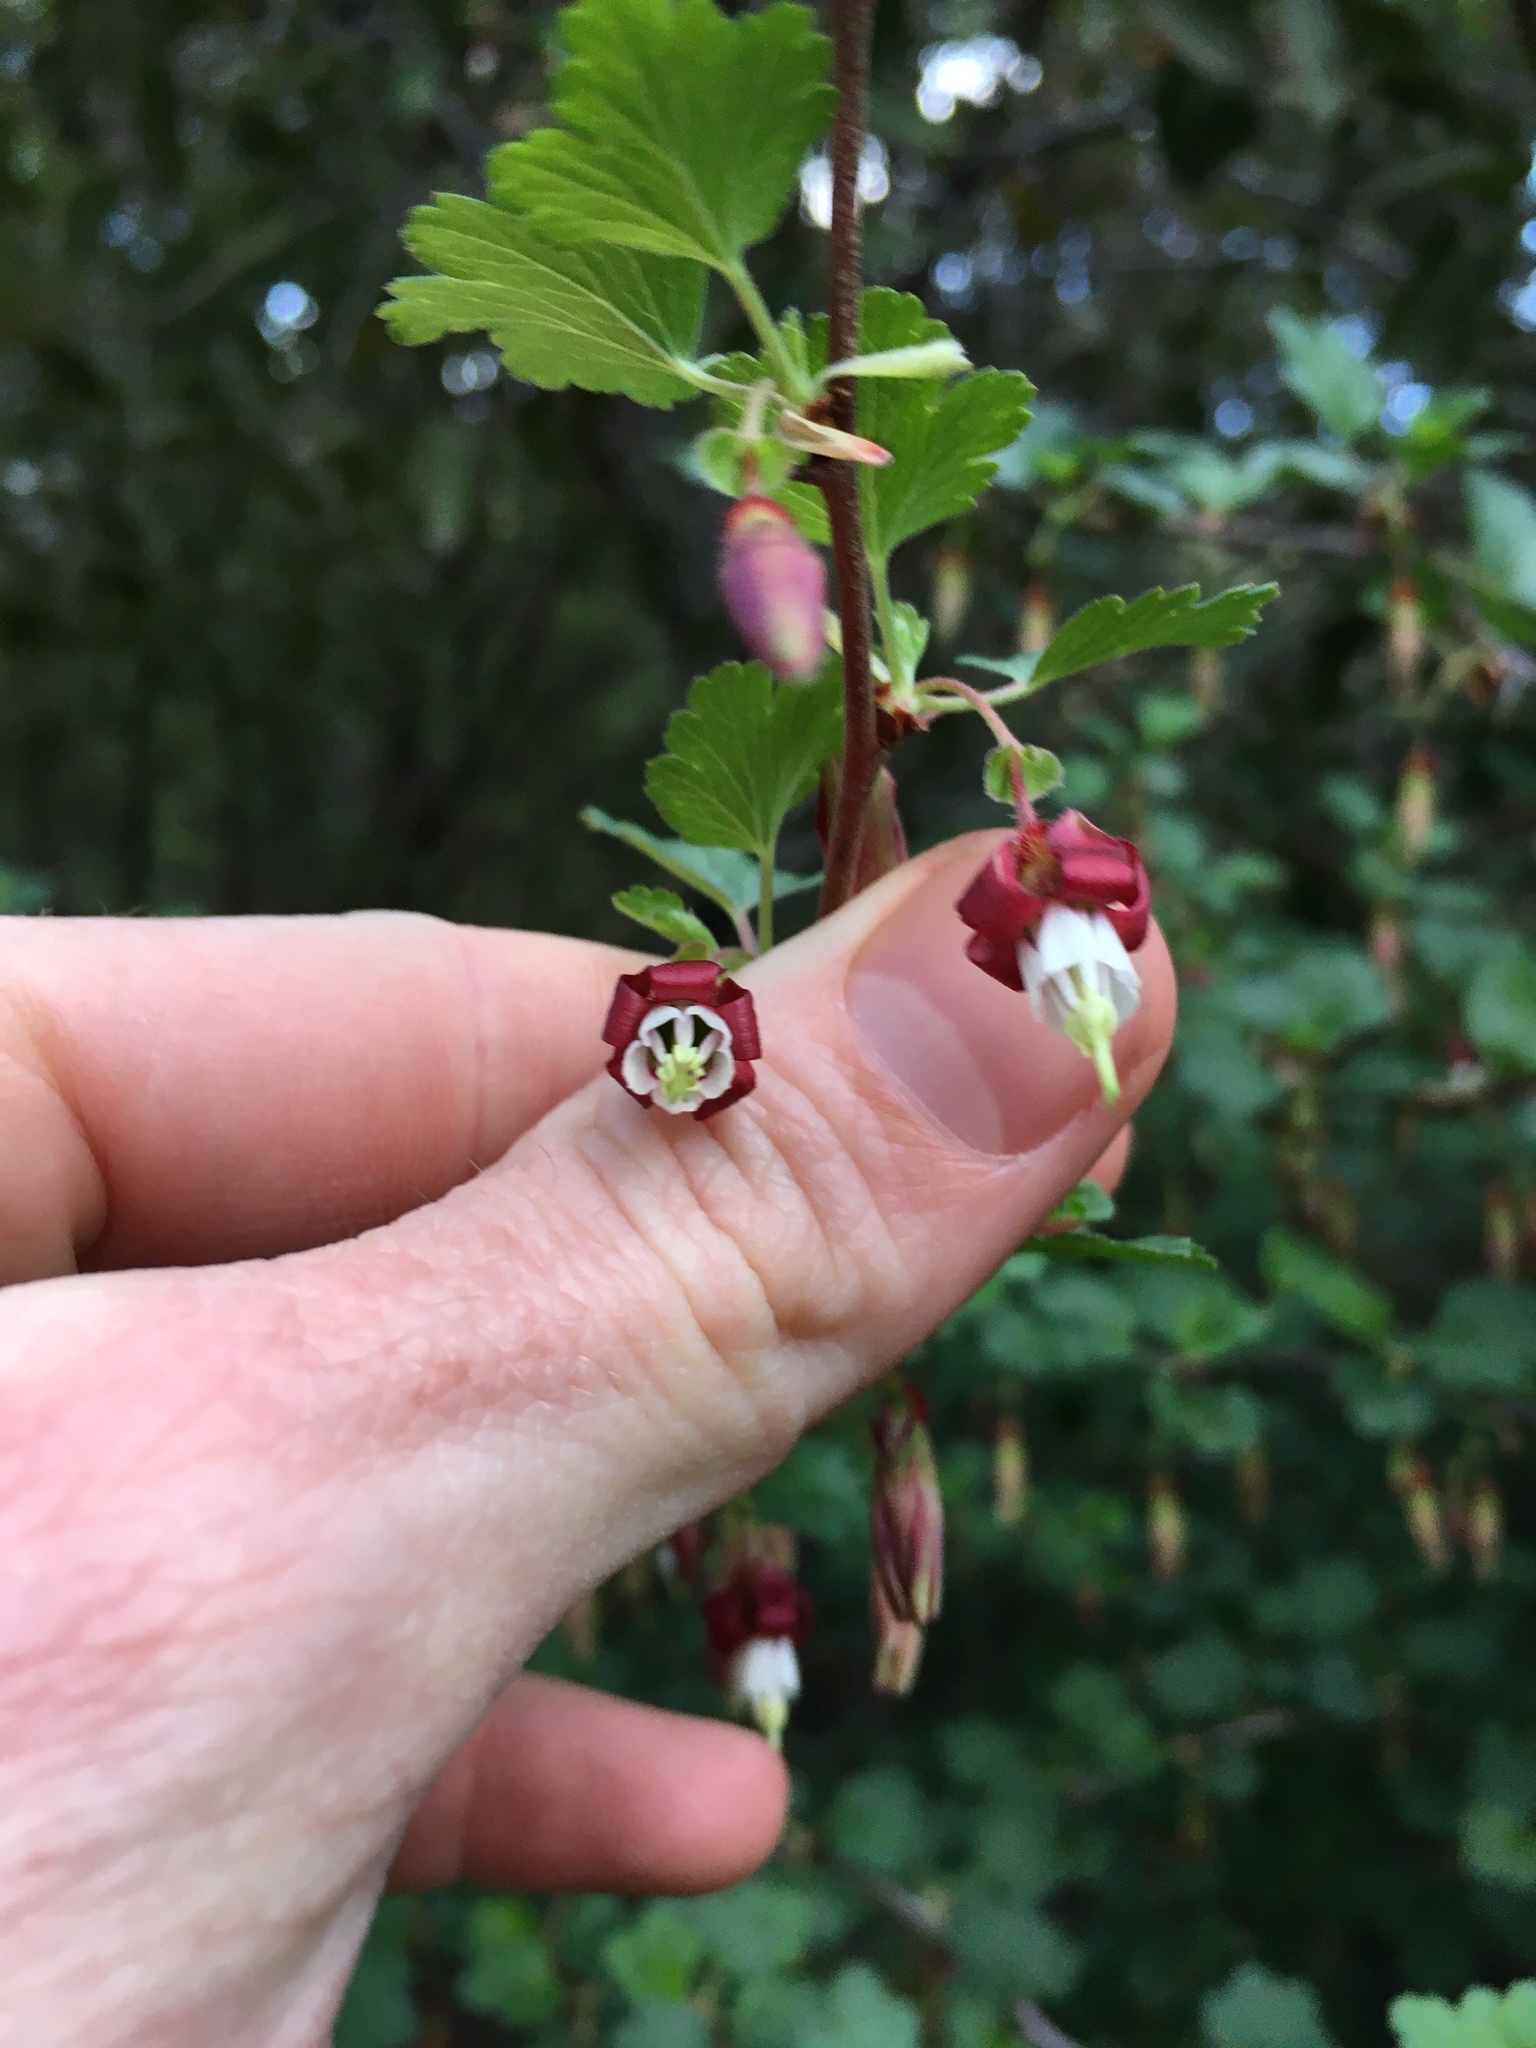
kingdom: Plantae
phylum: Tracheophyta
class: Magnoliopsida
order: Saxifragales
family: Grossulariaceae
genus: Ribes
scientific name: Ribes californicum
